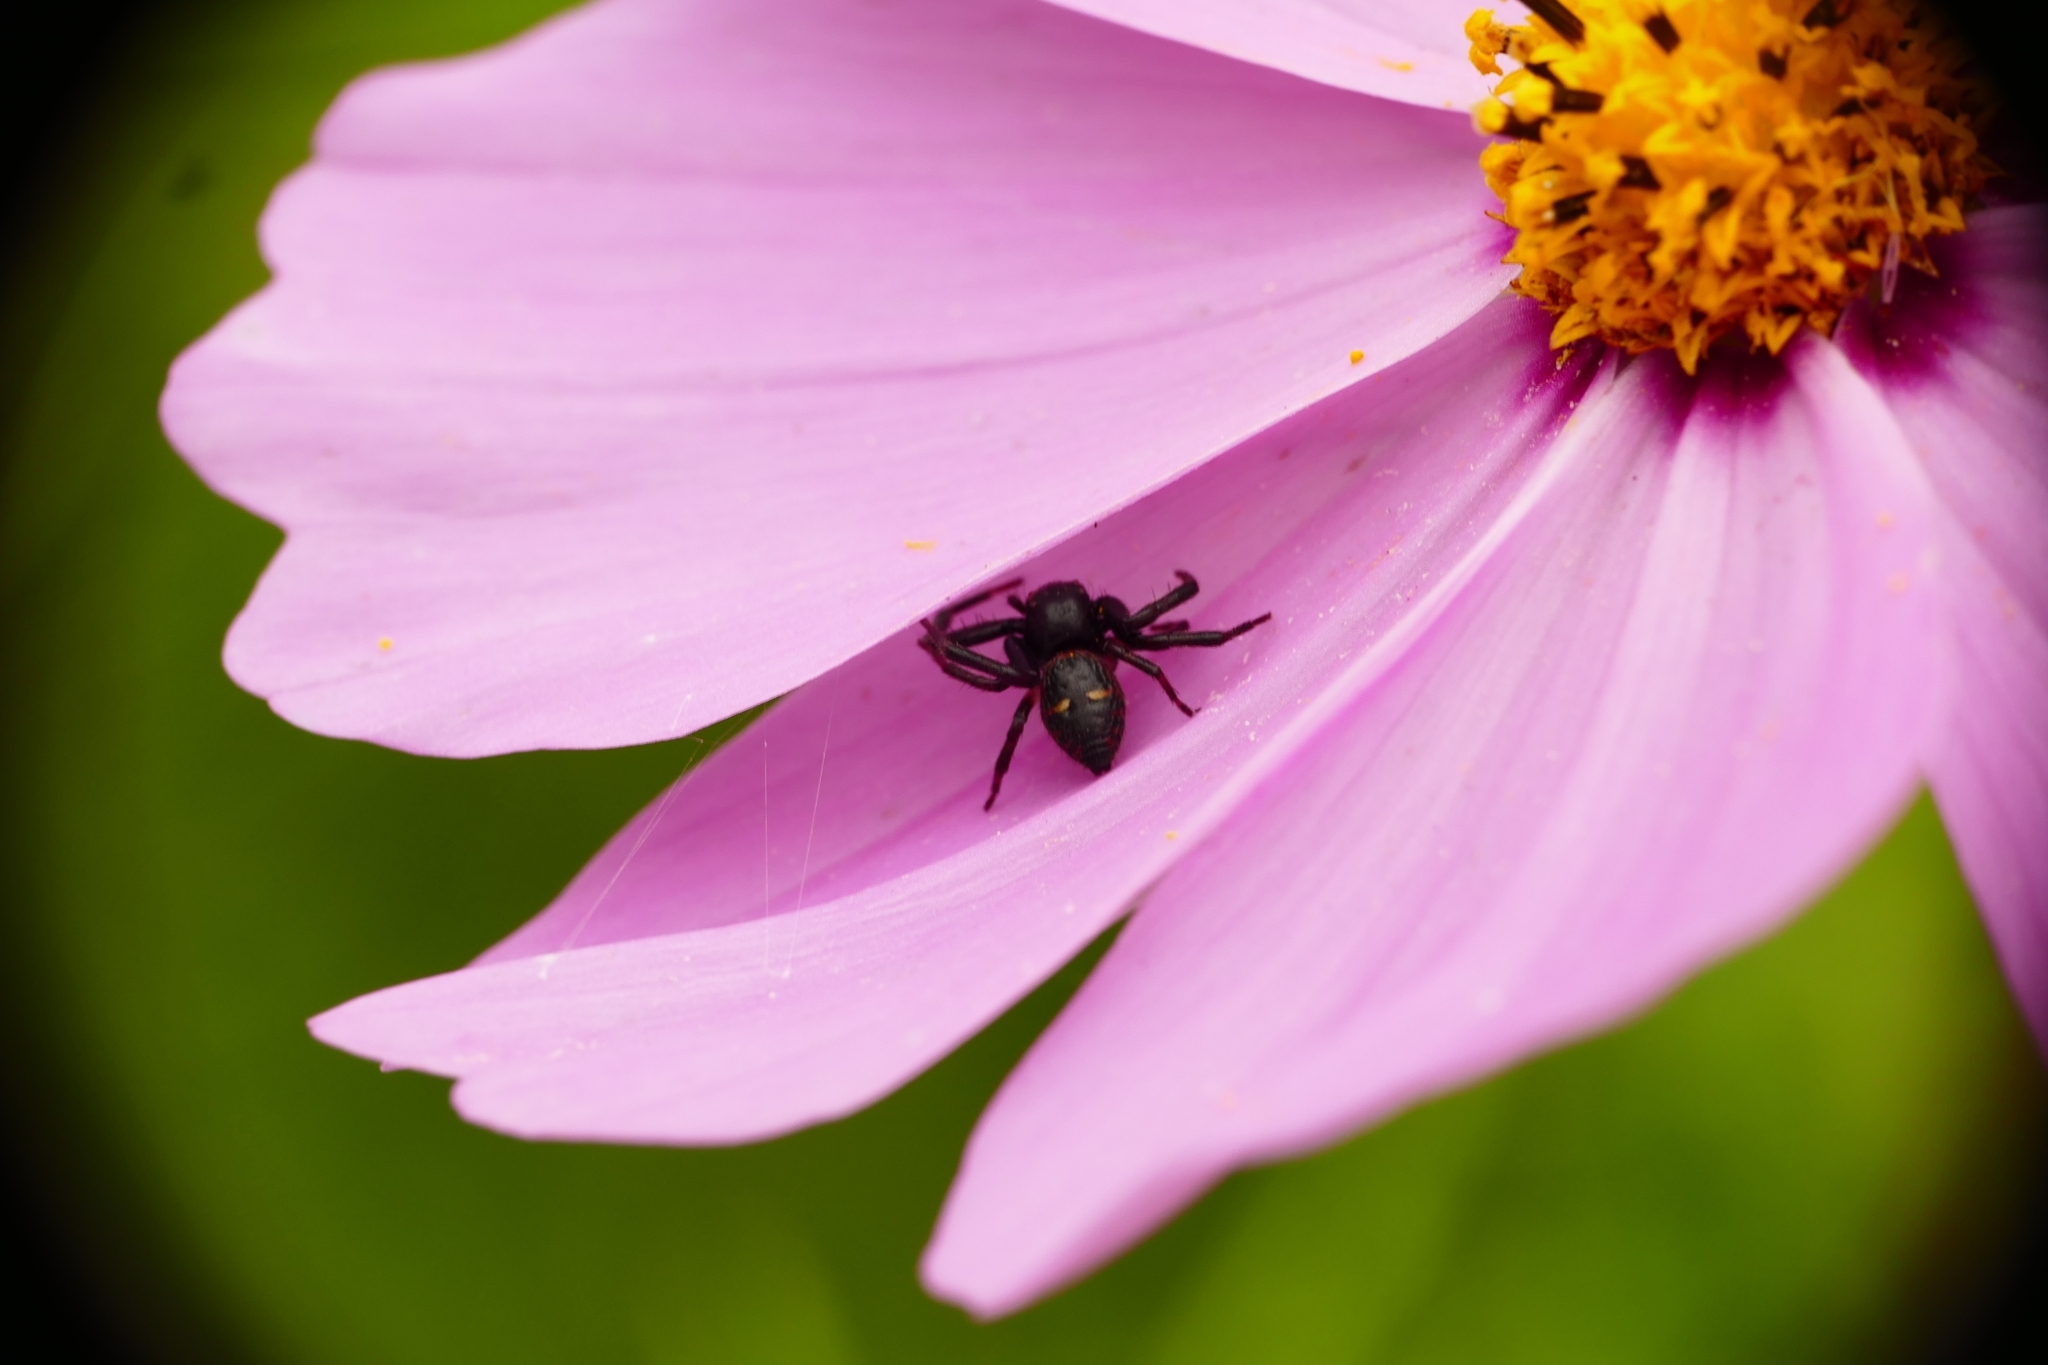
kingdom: Animalia
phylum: Arthropoda
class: Arachnida
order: Araneae
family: Thomisidae
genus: Synema
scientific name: Synema globosum
